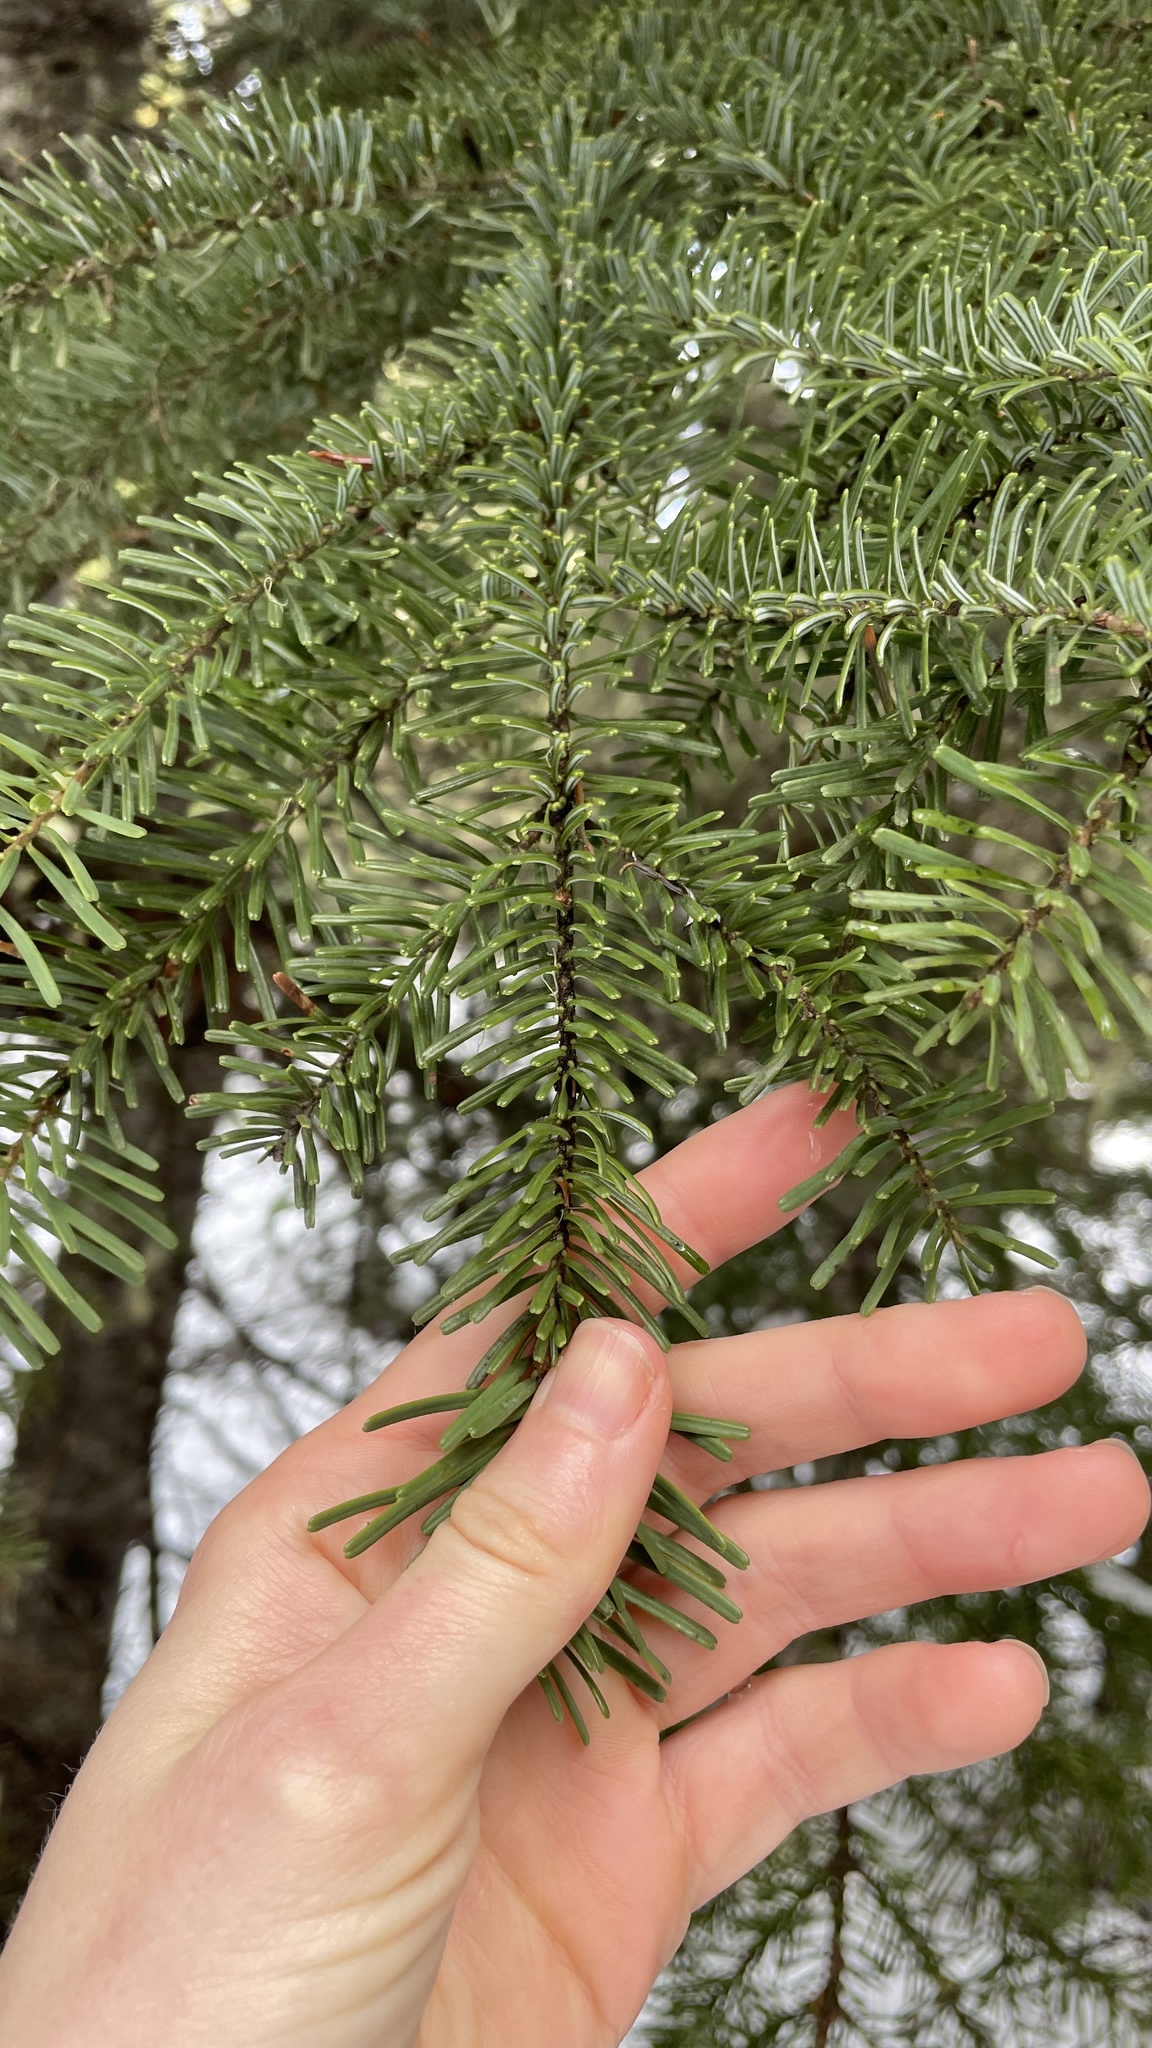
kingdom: Plantae
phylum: Tracheophyta
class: Pinopsida
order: Pinales
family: Pinaceae
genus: Abies
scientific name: Abies amabilis
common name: Pacific silver fir
